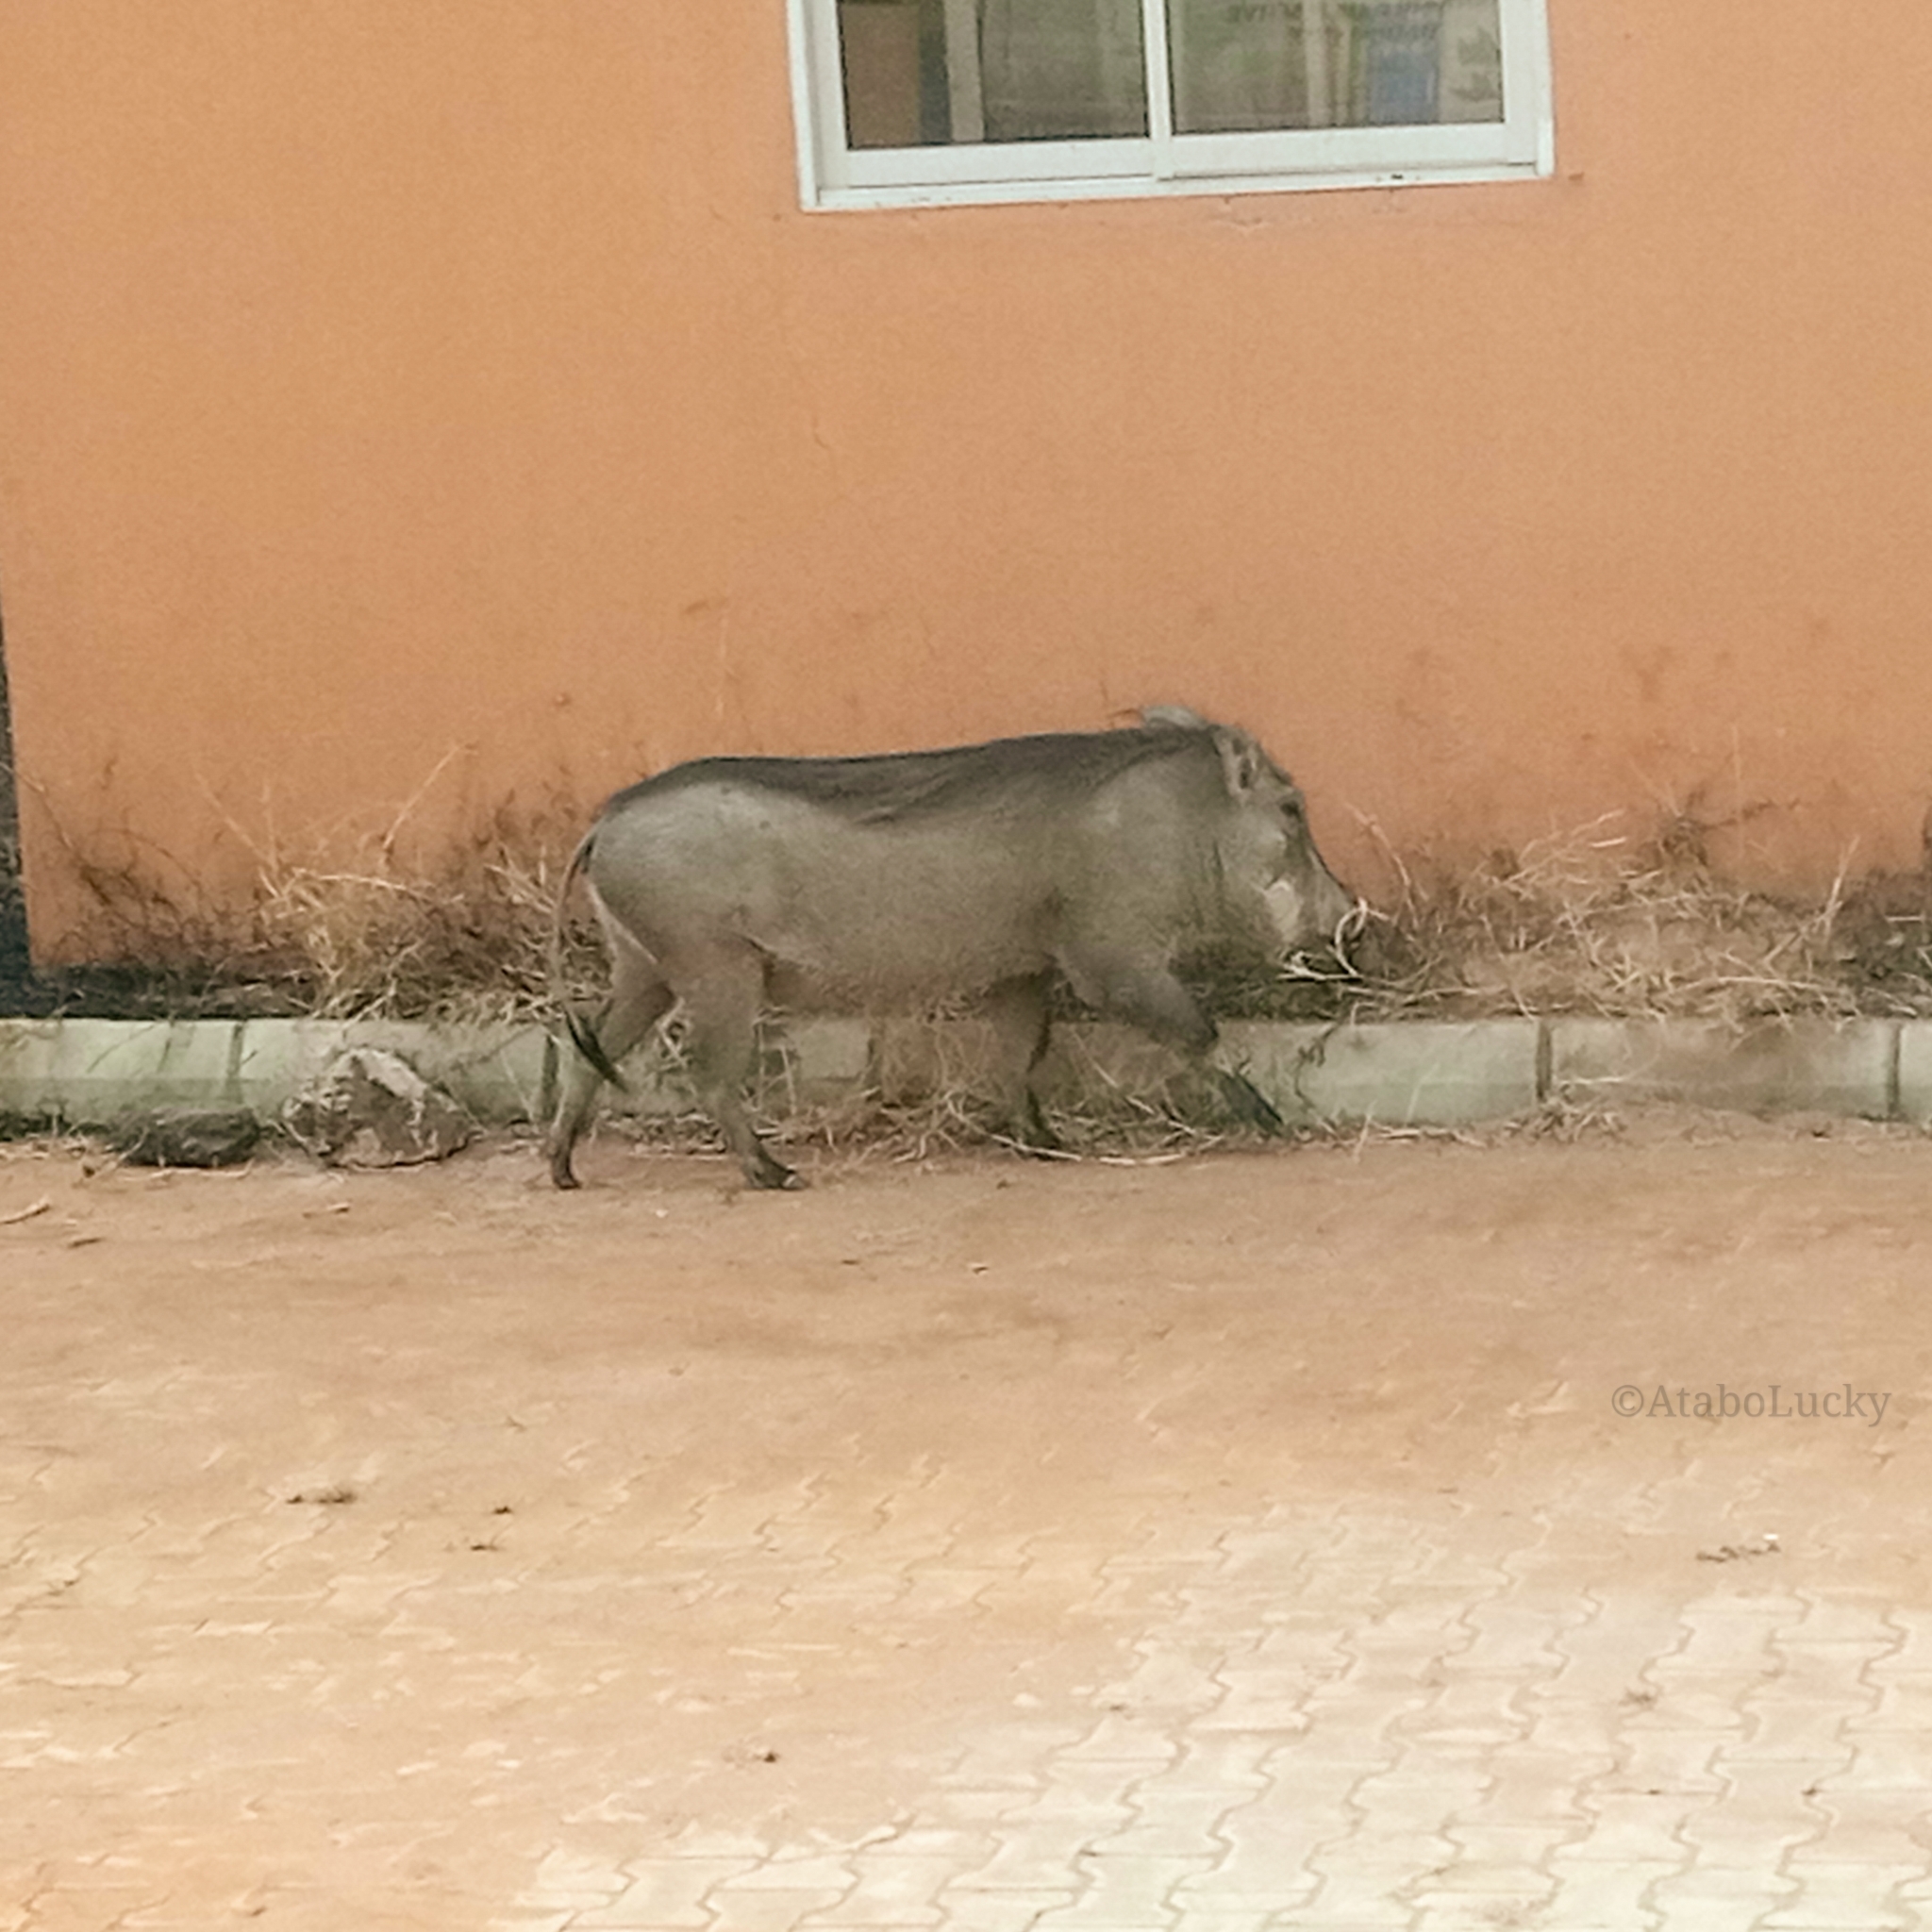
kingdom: Animalia
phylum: Chordata
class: Mammalia
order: Artiodactyla
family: Suidae
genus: Phacochoerus
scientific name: Phacochoerus africanus
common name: Common warthog
